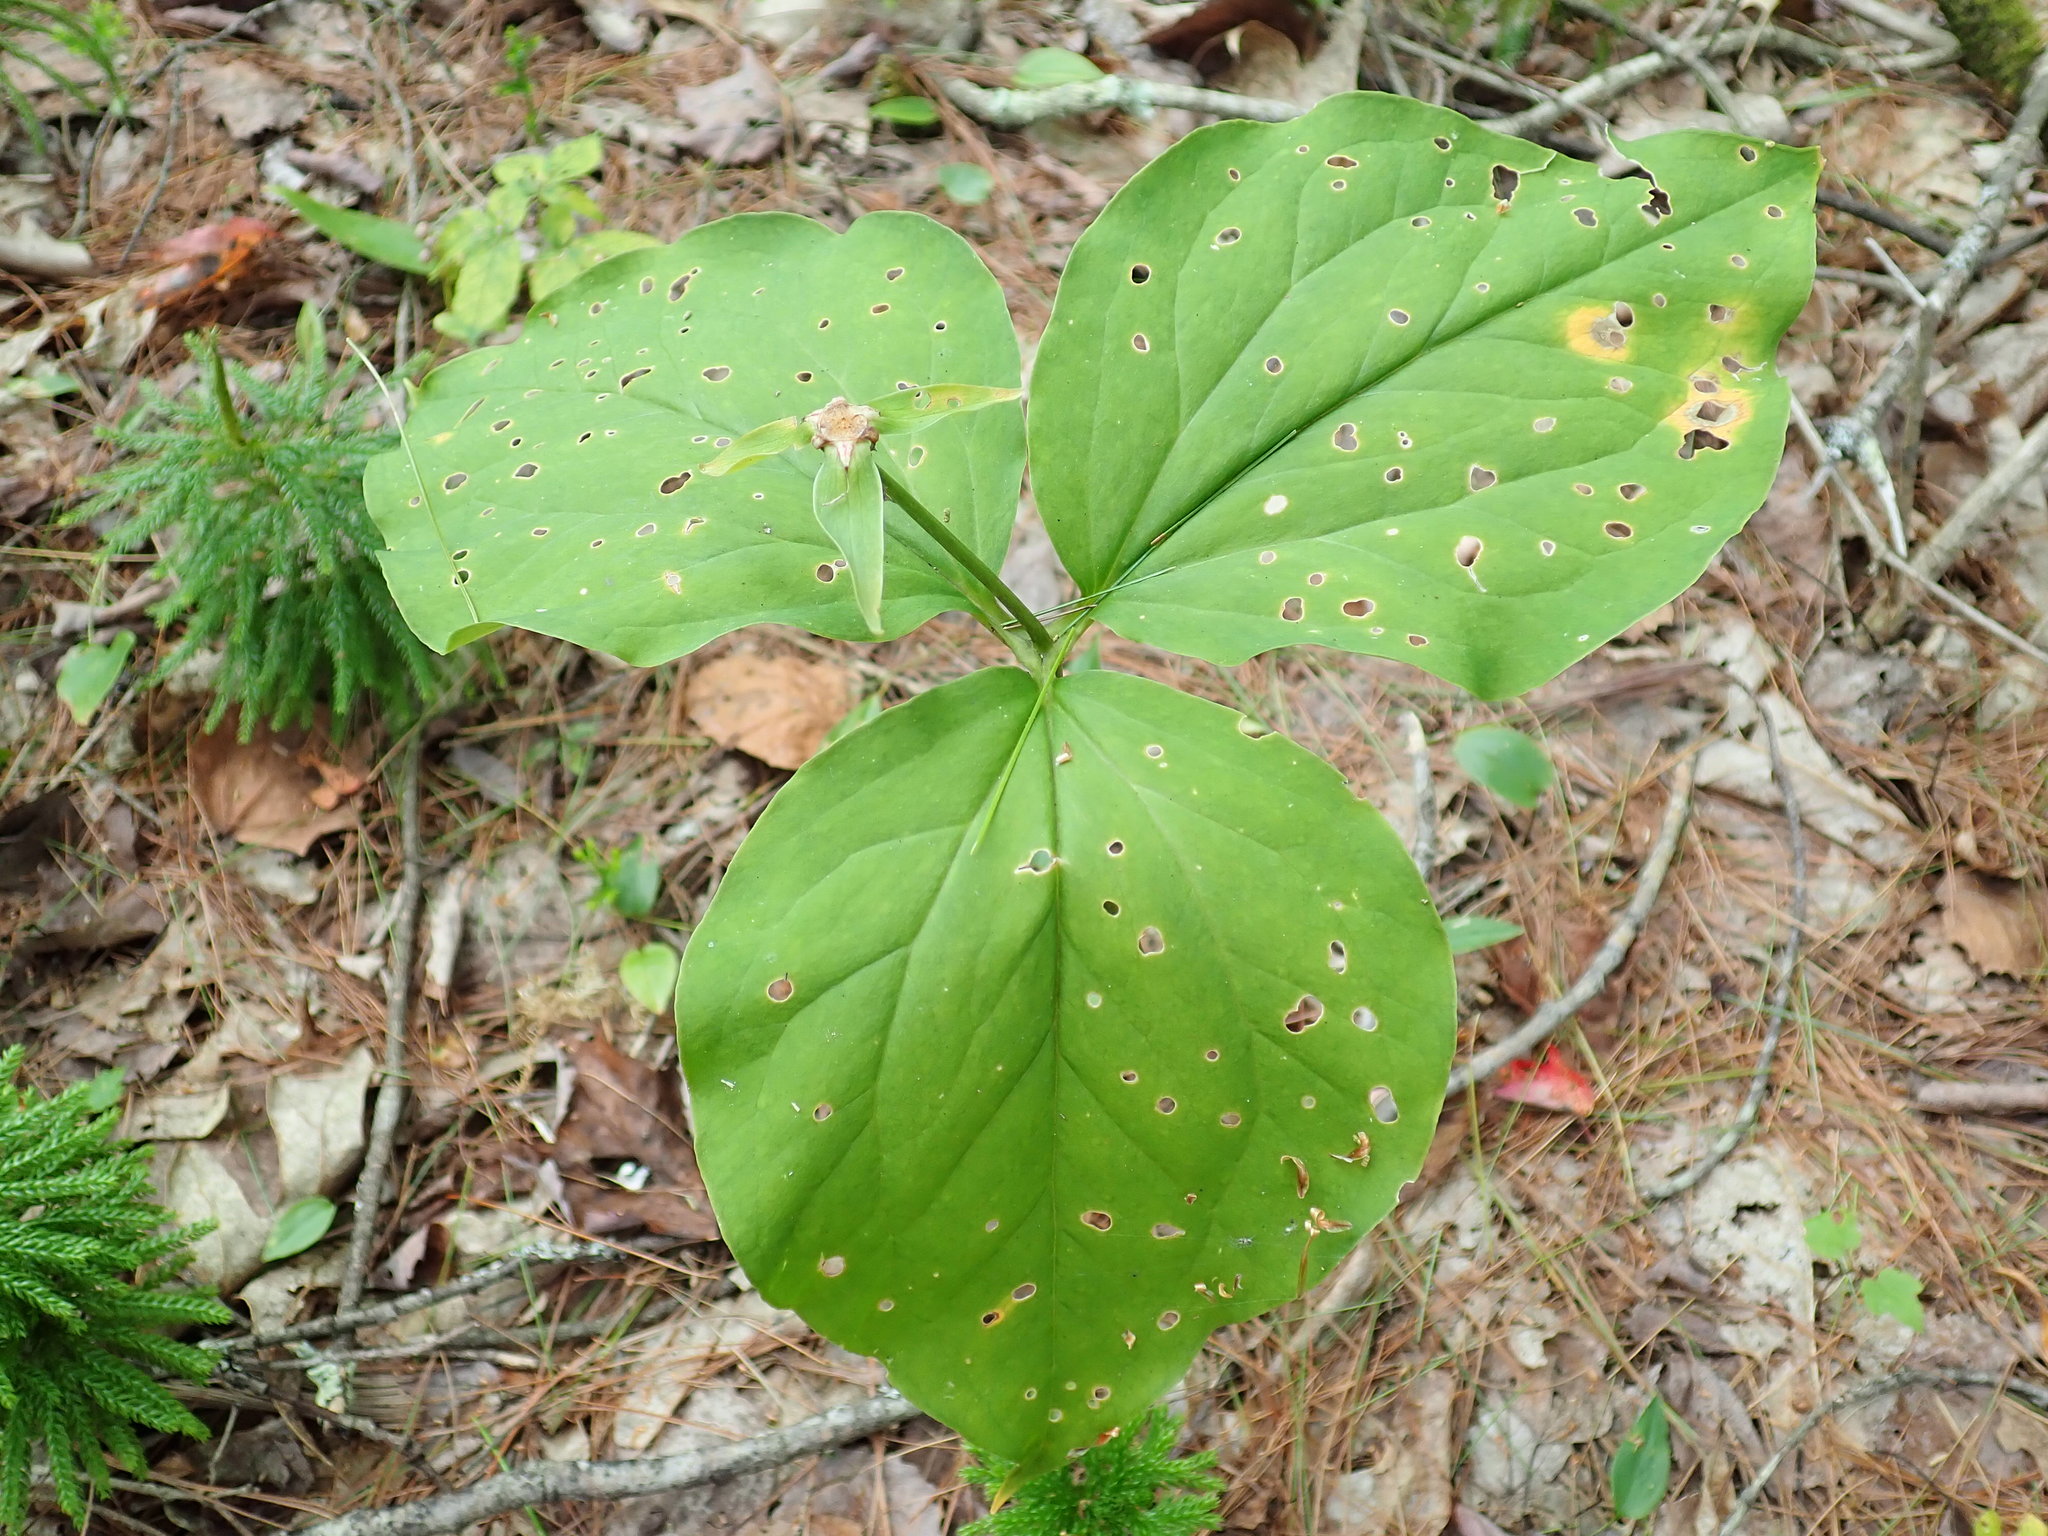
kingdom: Plantae
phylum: Tracheophyta
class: Liliopsida
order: Liliales
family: Melanthiaceae
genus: Trillium
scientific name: Trillium undulatum
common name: Paint trillium
